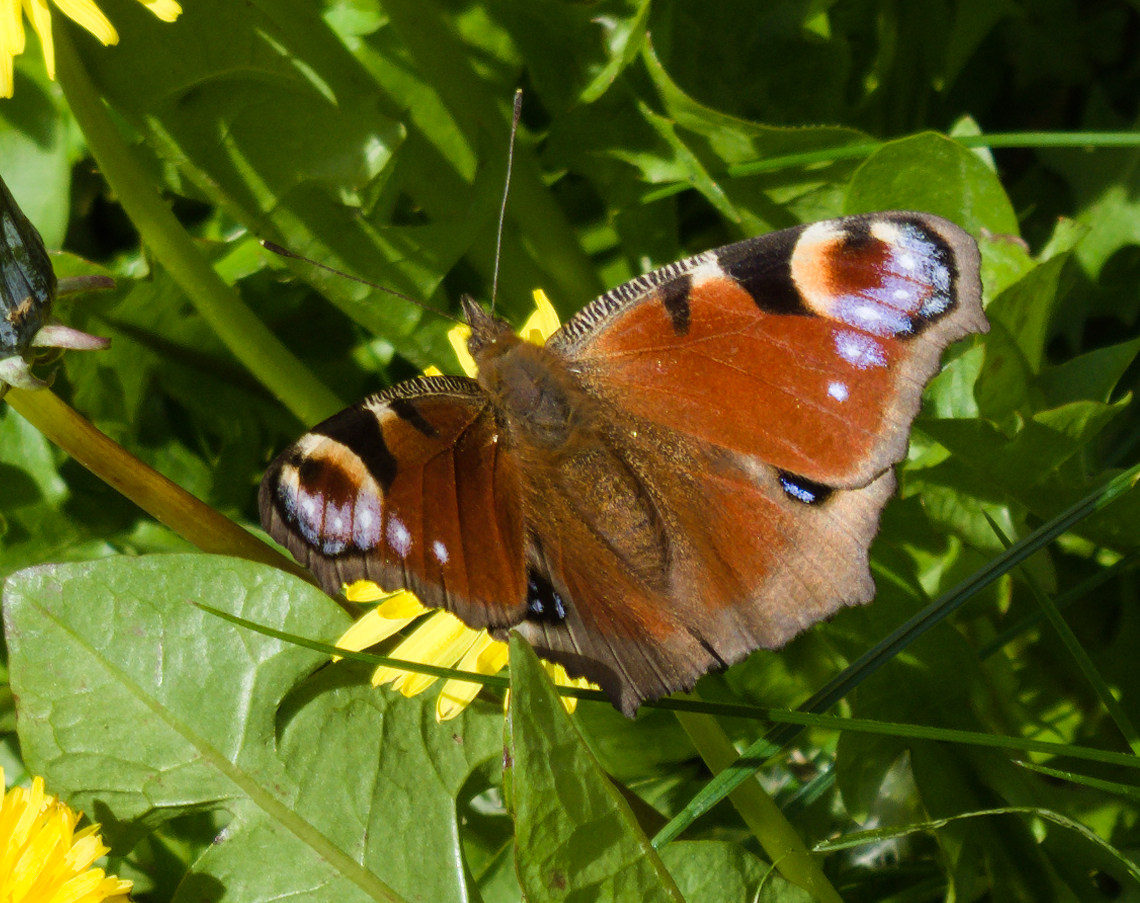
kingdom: Animalia
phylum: Arthropoda
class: Insecta
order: Lepidoptera
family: Nymphalidae
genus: Aglais
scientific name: Aglais io
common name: Peacock
